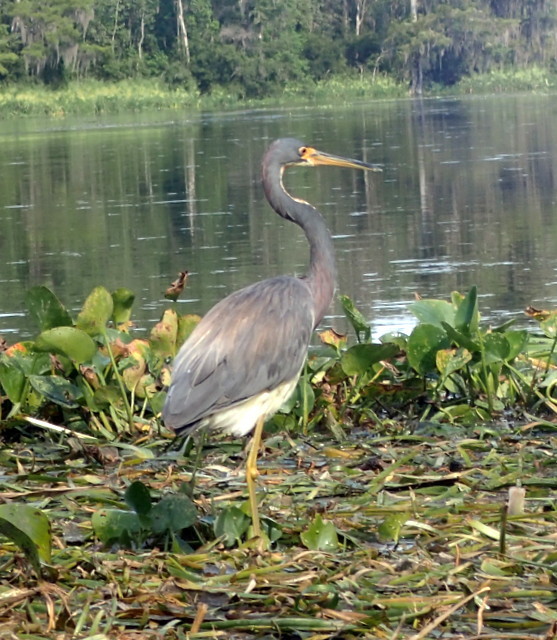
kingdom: Animalia
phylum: Chordata
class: Aves
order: Pelecaniformes
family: Ardeidae
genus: Egretta
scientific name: Egretta tricolor
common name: Tricolored heron
